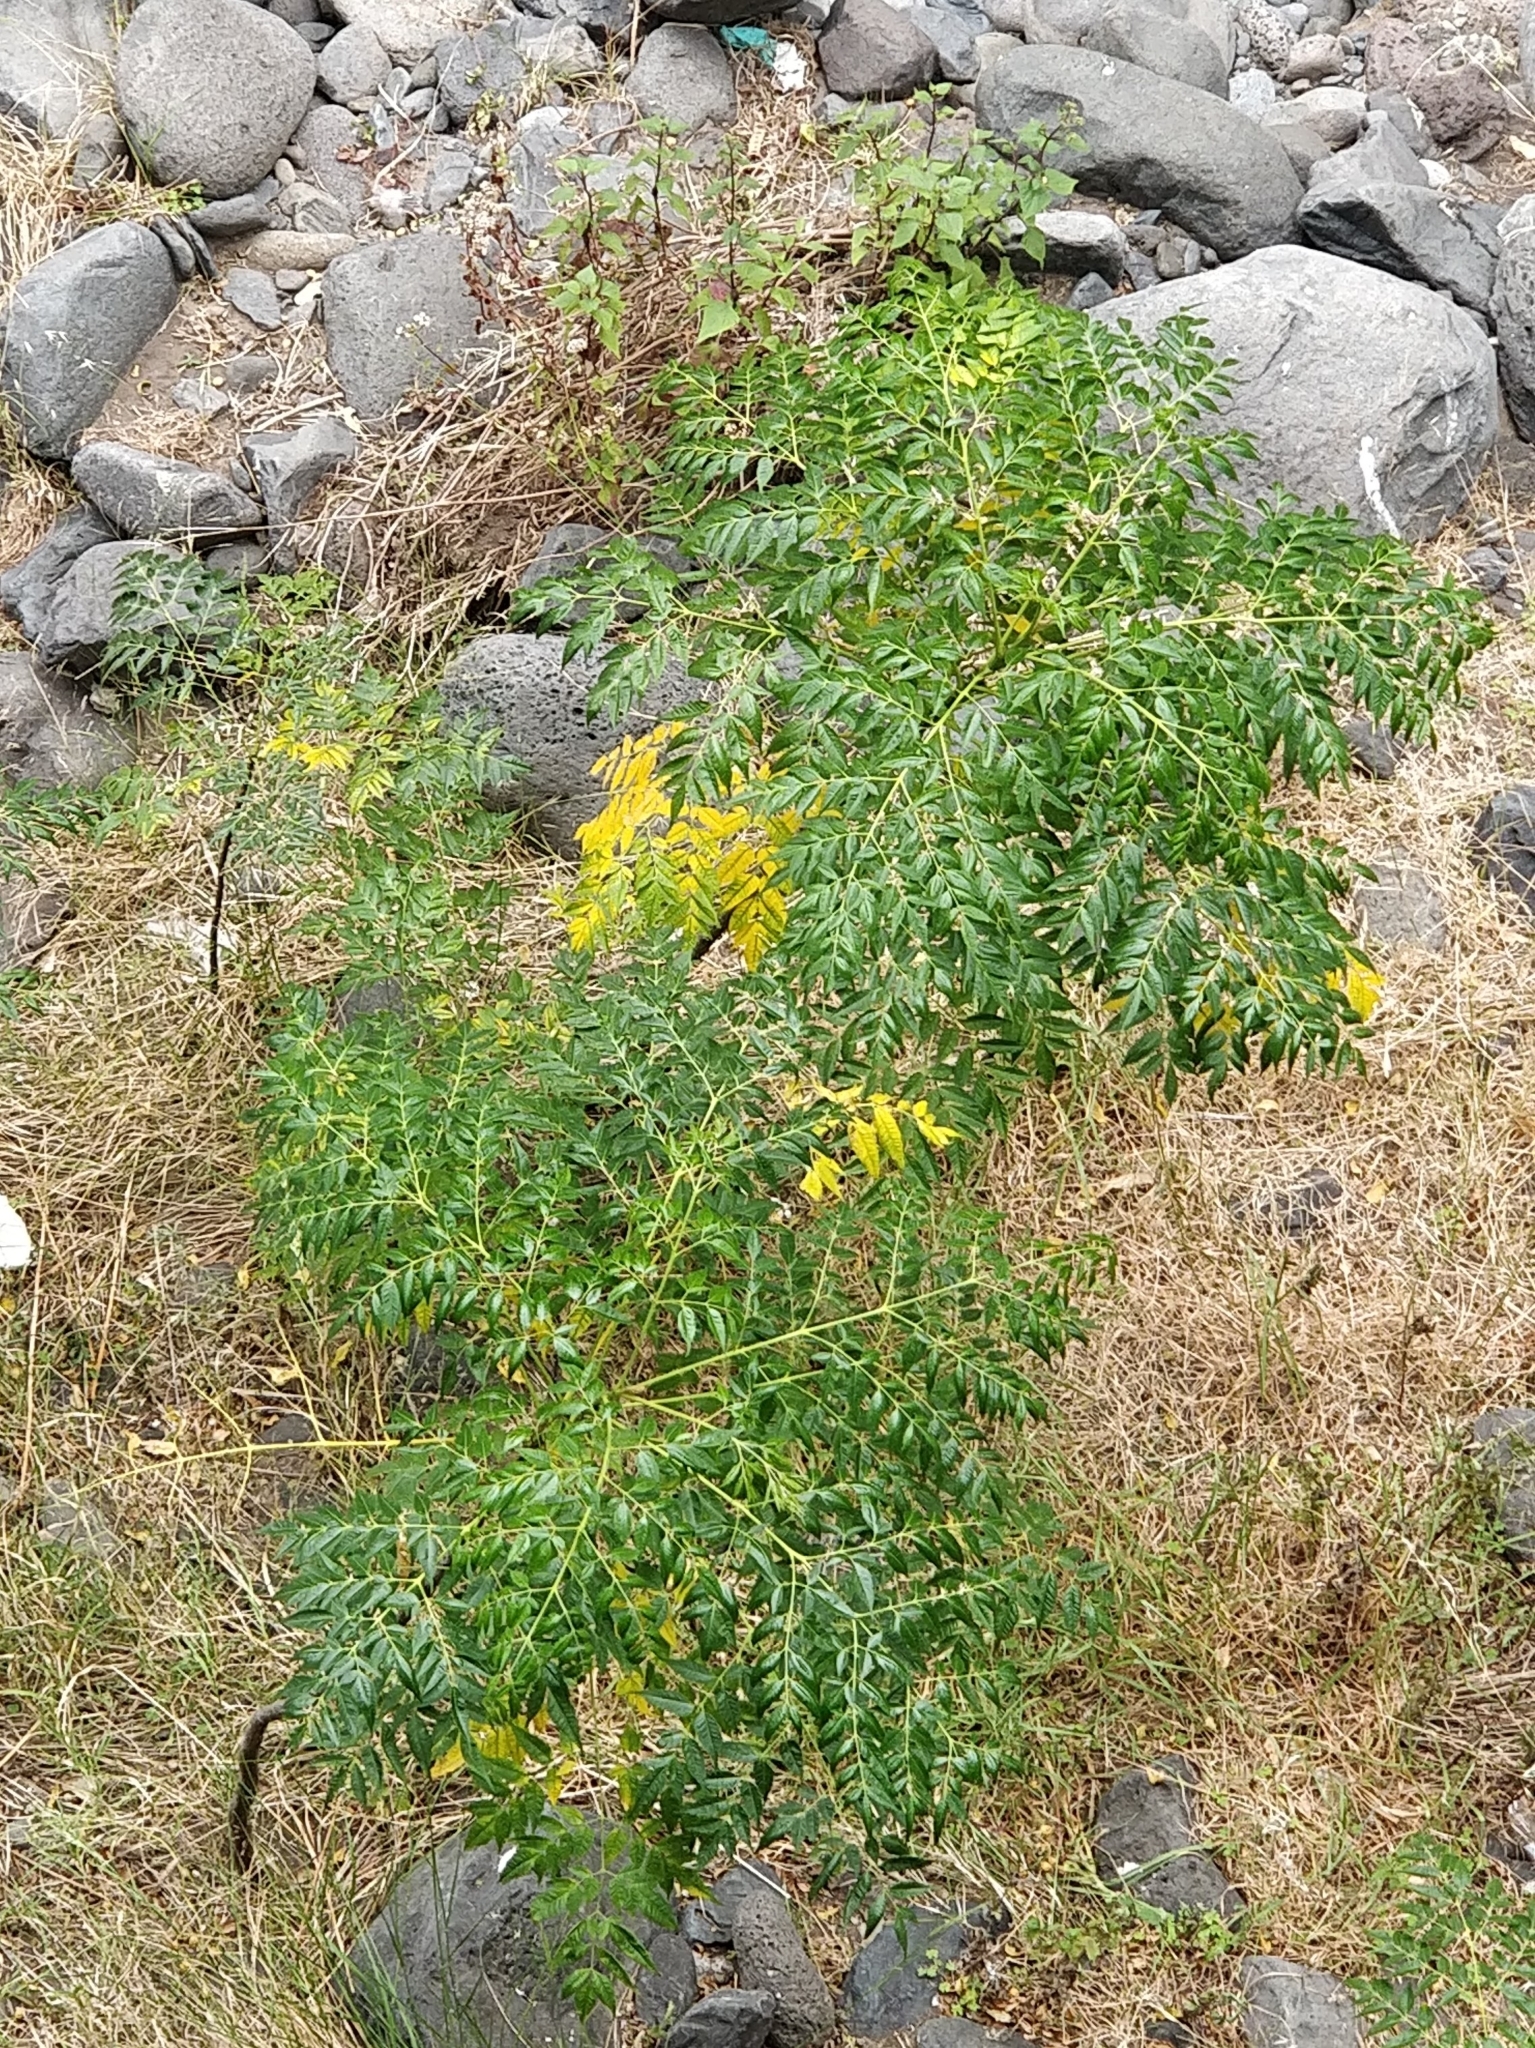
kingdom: Plantae
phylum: Tracheophyta
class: Magnoliopsida
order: Sapindales
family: Meliaceae
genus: Melia
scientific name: Melia azedarach
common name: Chinaberrytree
